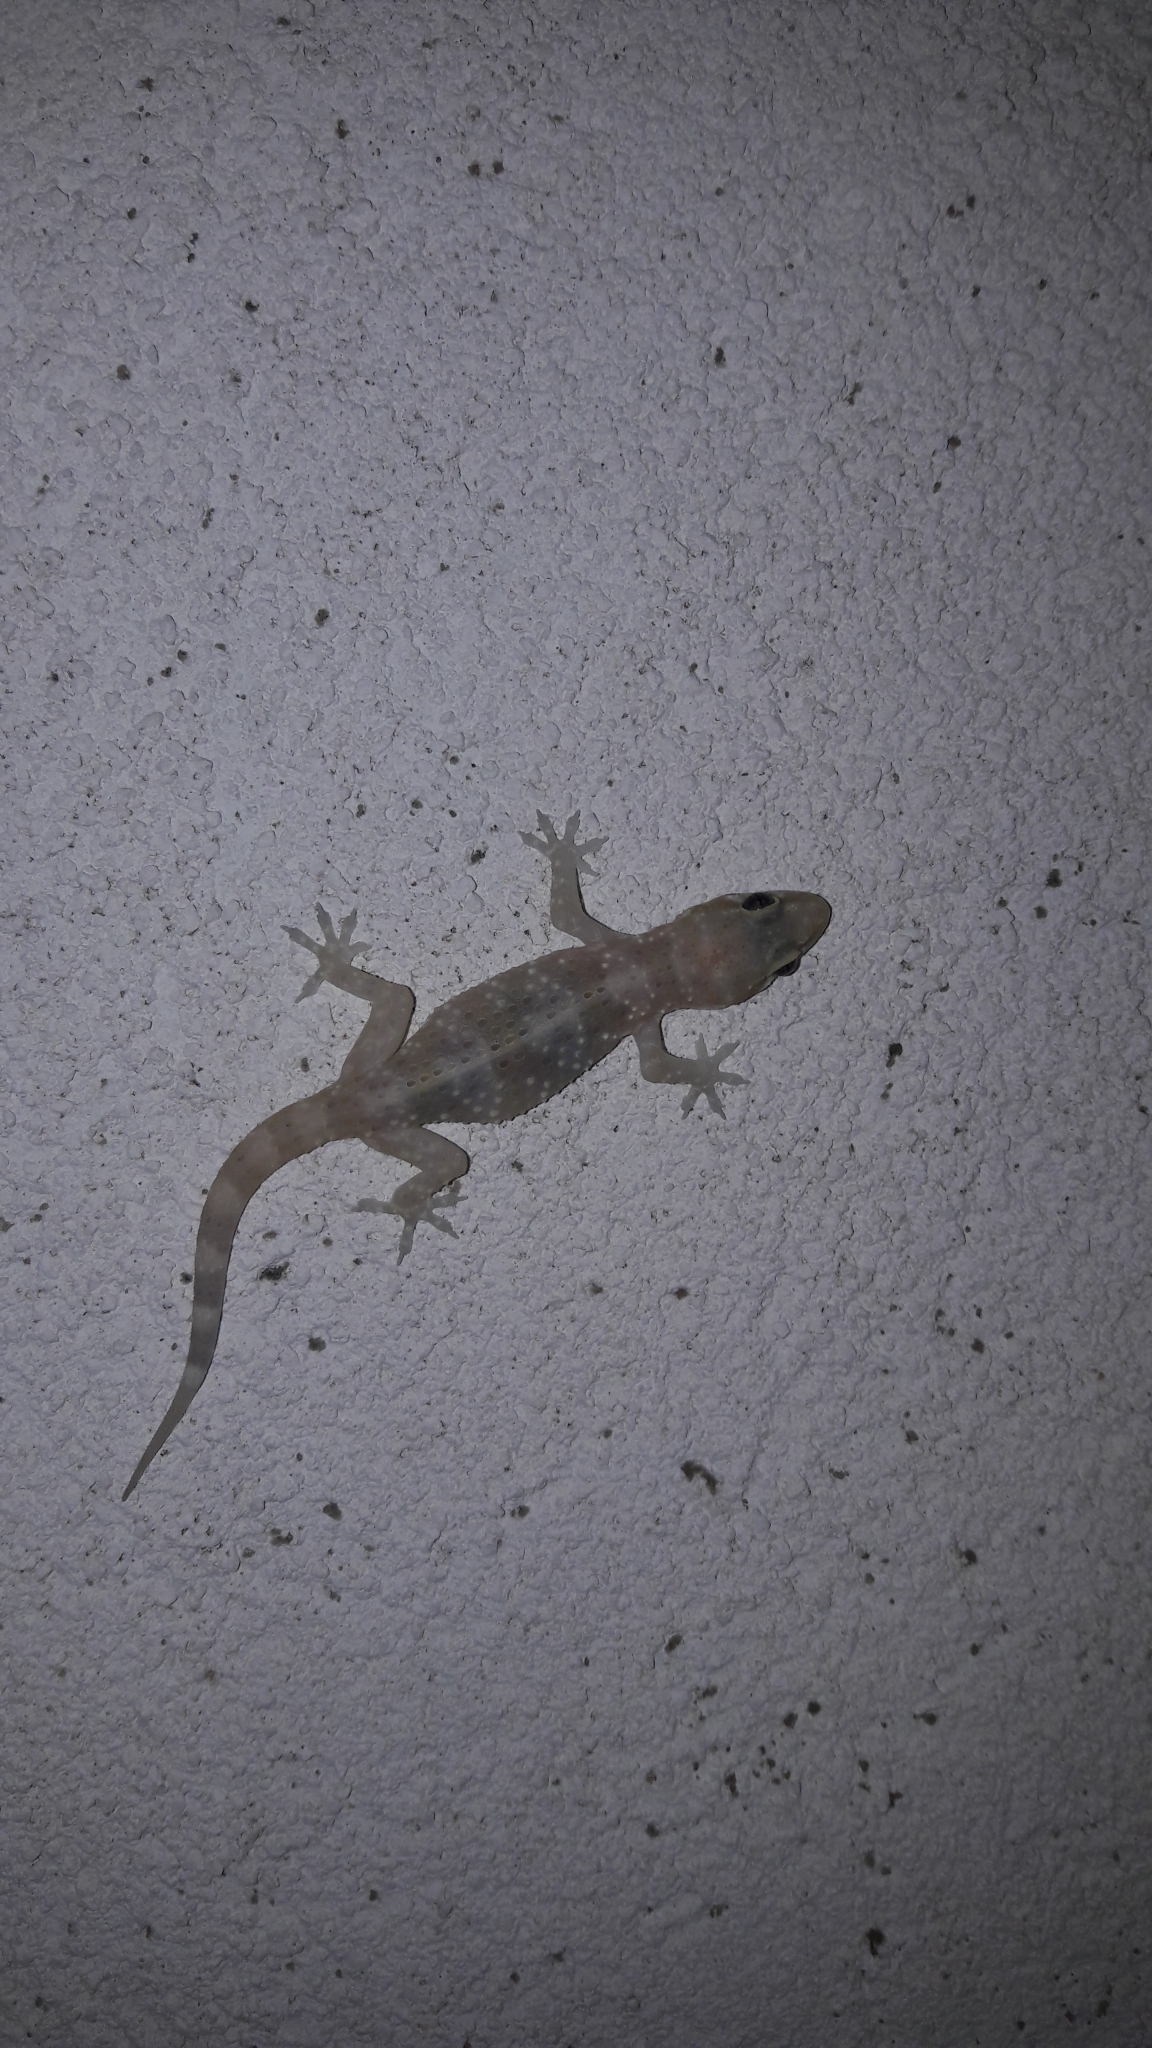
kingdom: Animalia
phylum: Chordata
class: Squamata
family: Gekkonidae
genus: Hemidactylus
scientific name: Hemidactylus turcicus
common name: Turkish gecko
